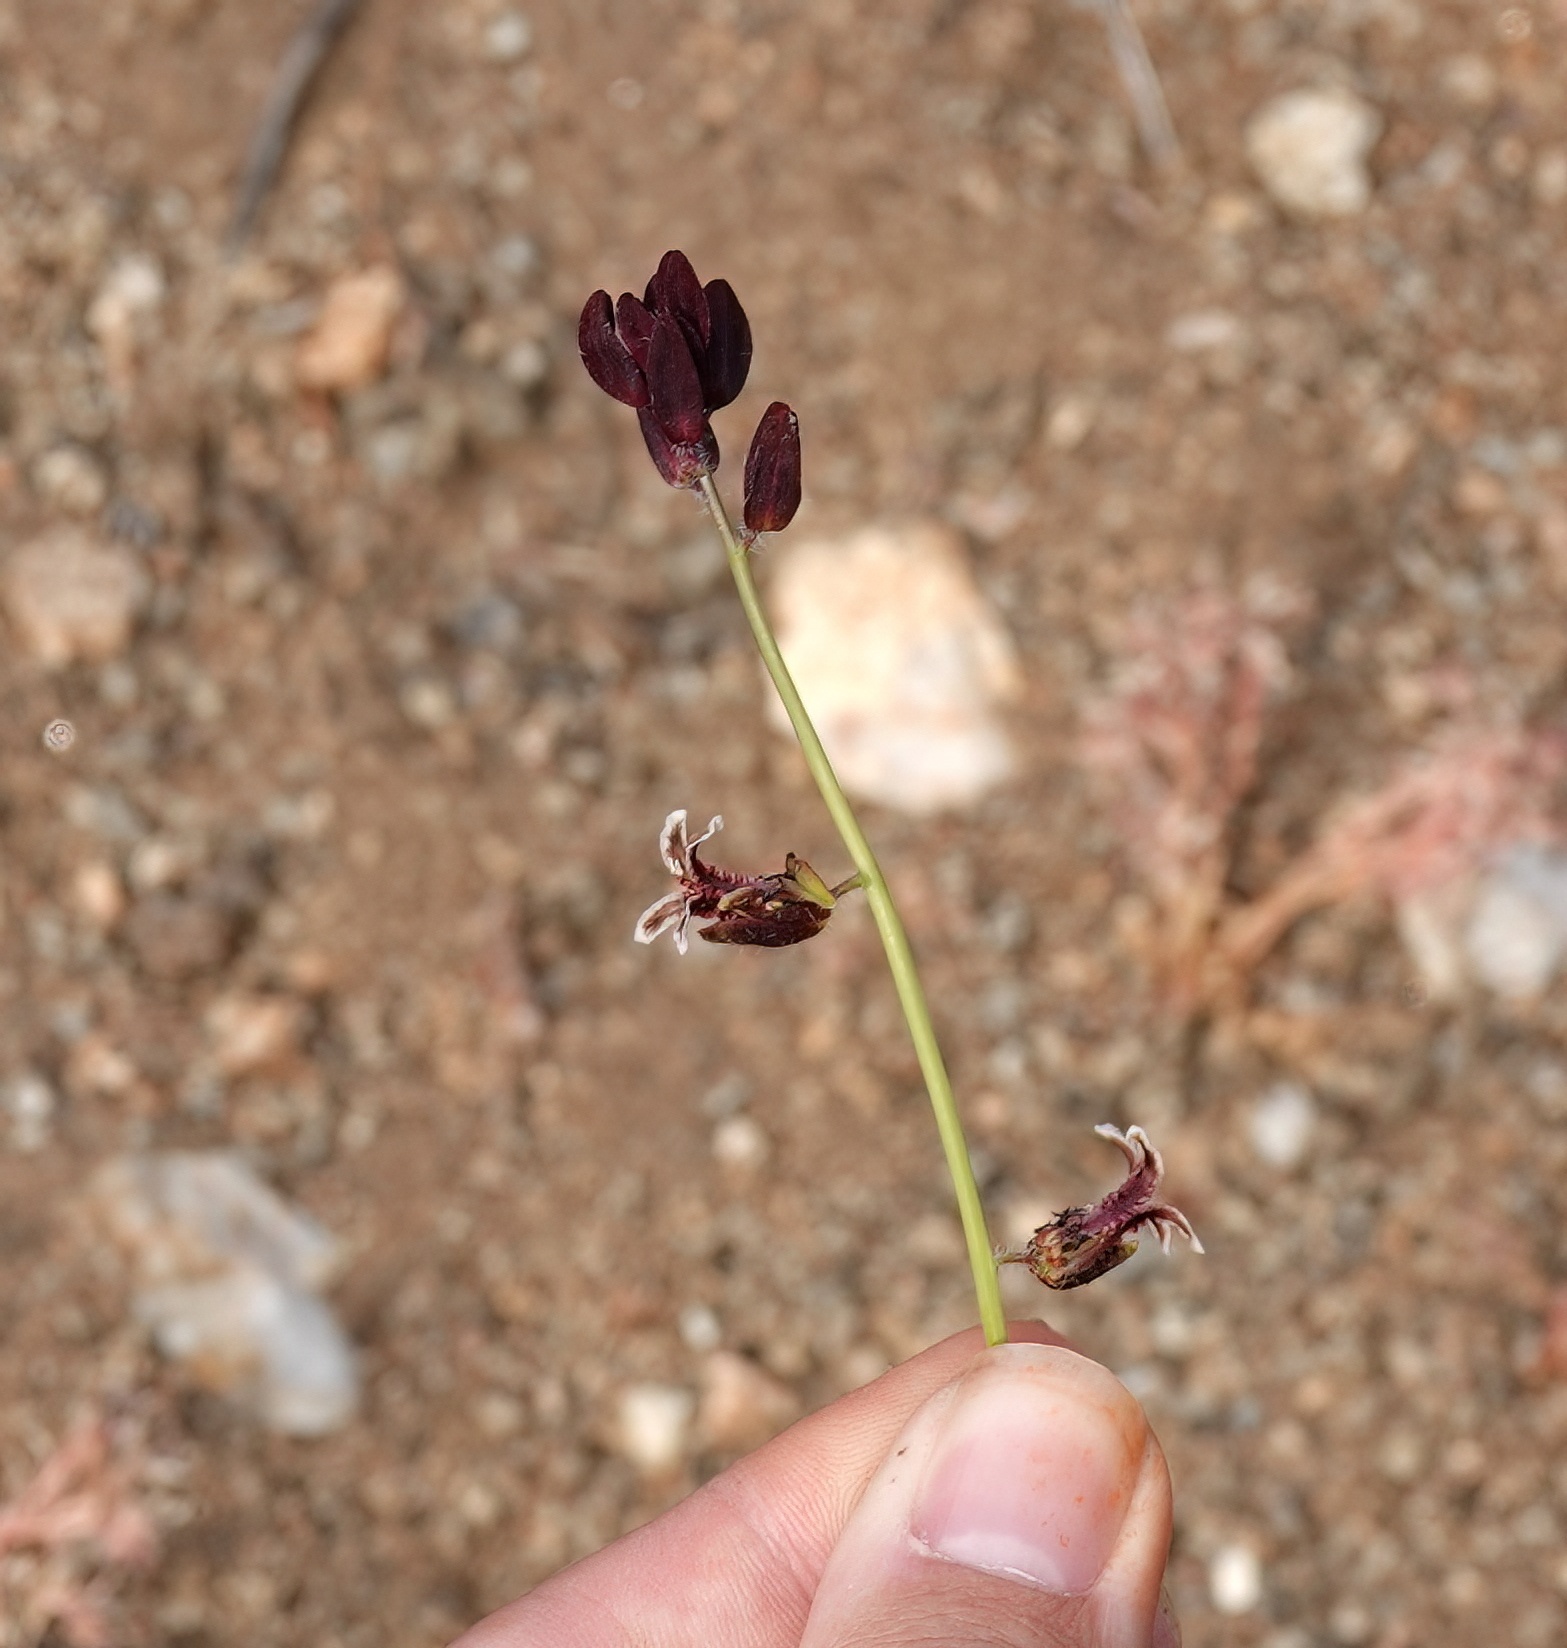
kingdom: Plantae
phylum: Tracheophyta
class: Magnoliopsida
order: Brassicales
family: Brassicaceae
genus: Streptanthus
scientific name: Streptanthus coulteri
